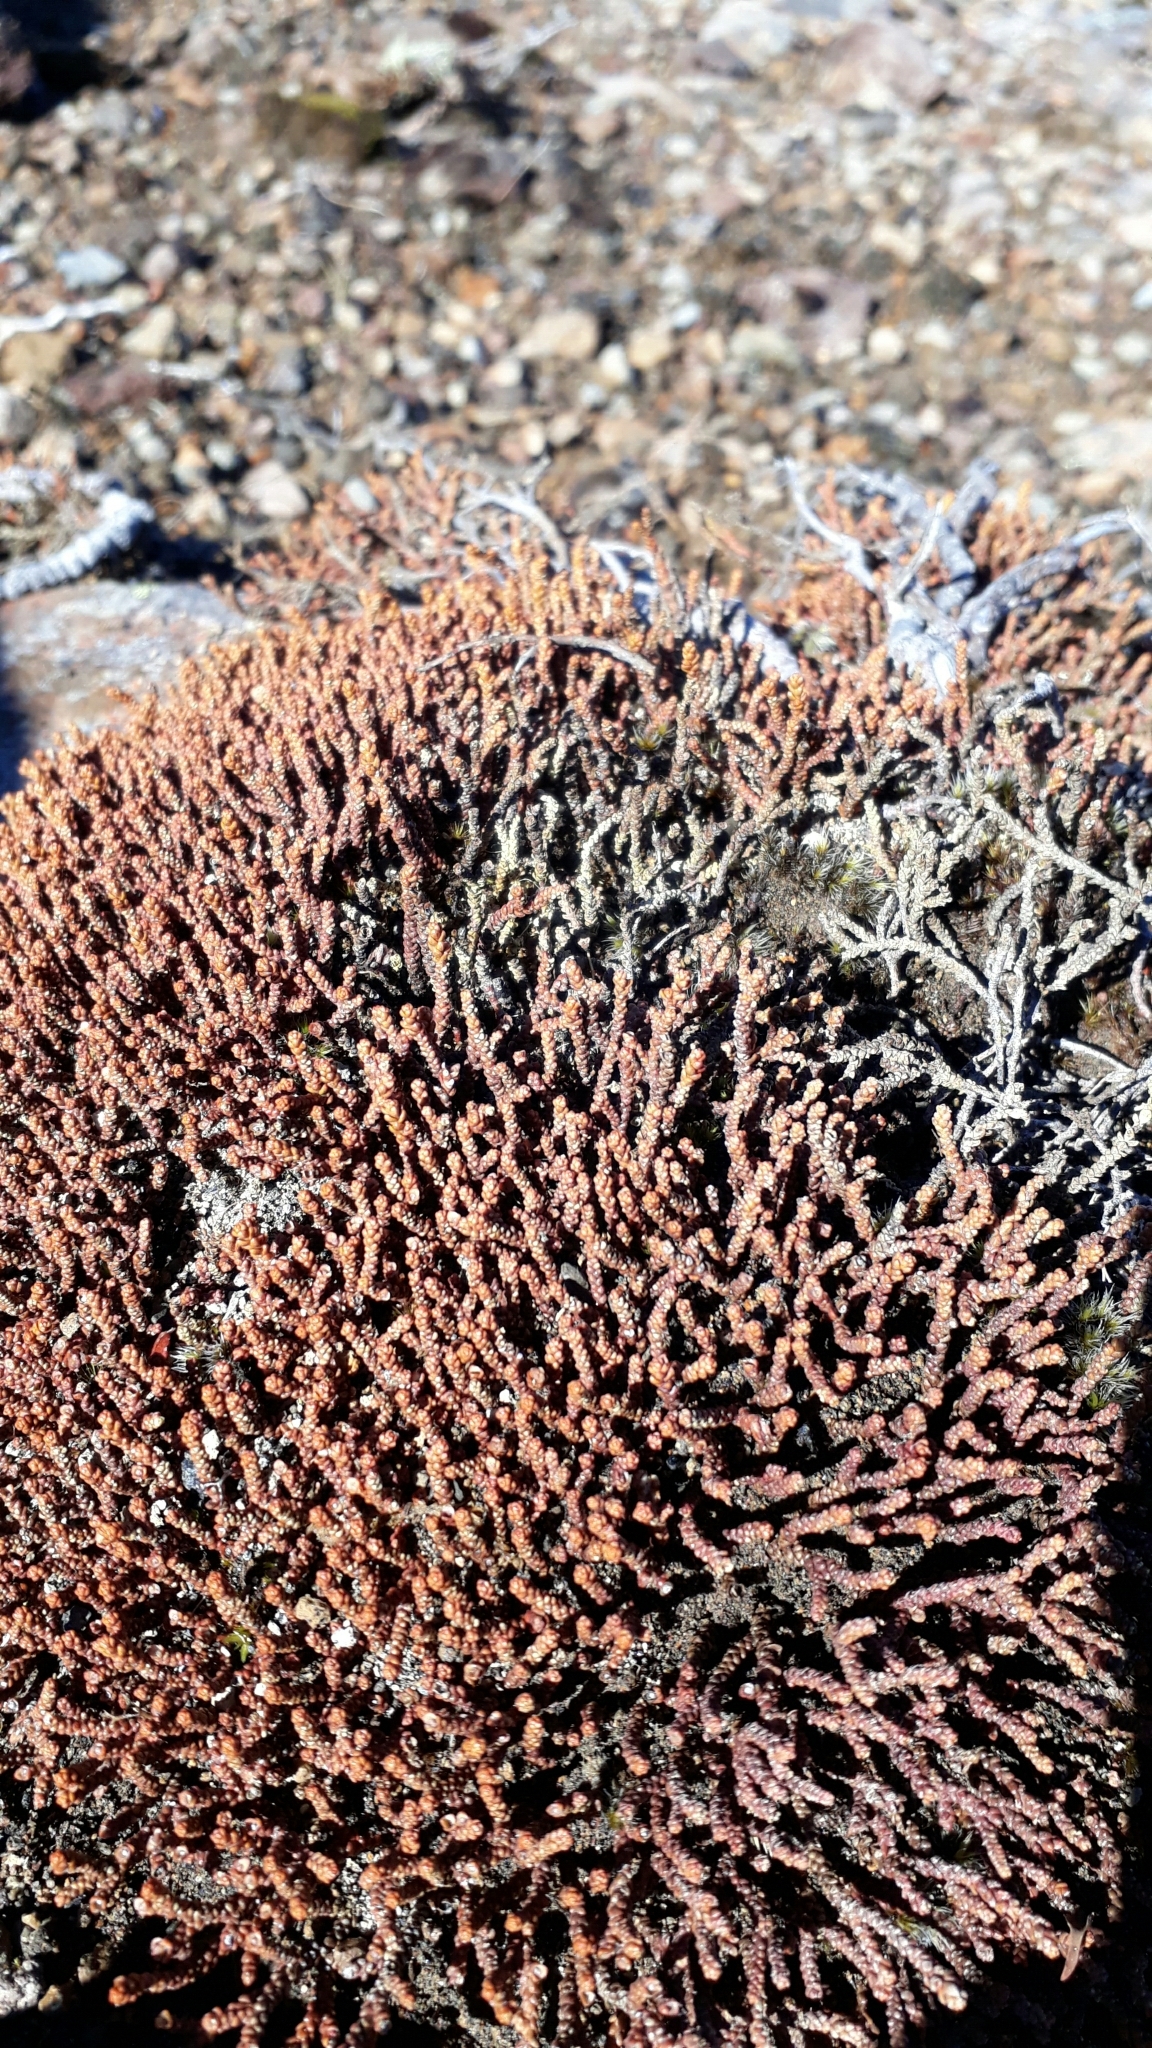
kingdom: Plantae
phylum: Tracheophyta
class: Pinopsida
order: Pinales
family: Podocarpaceae
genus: Lepidothamnus
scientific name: Lepidothamnus laxifolius
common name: Pygmy pine
